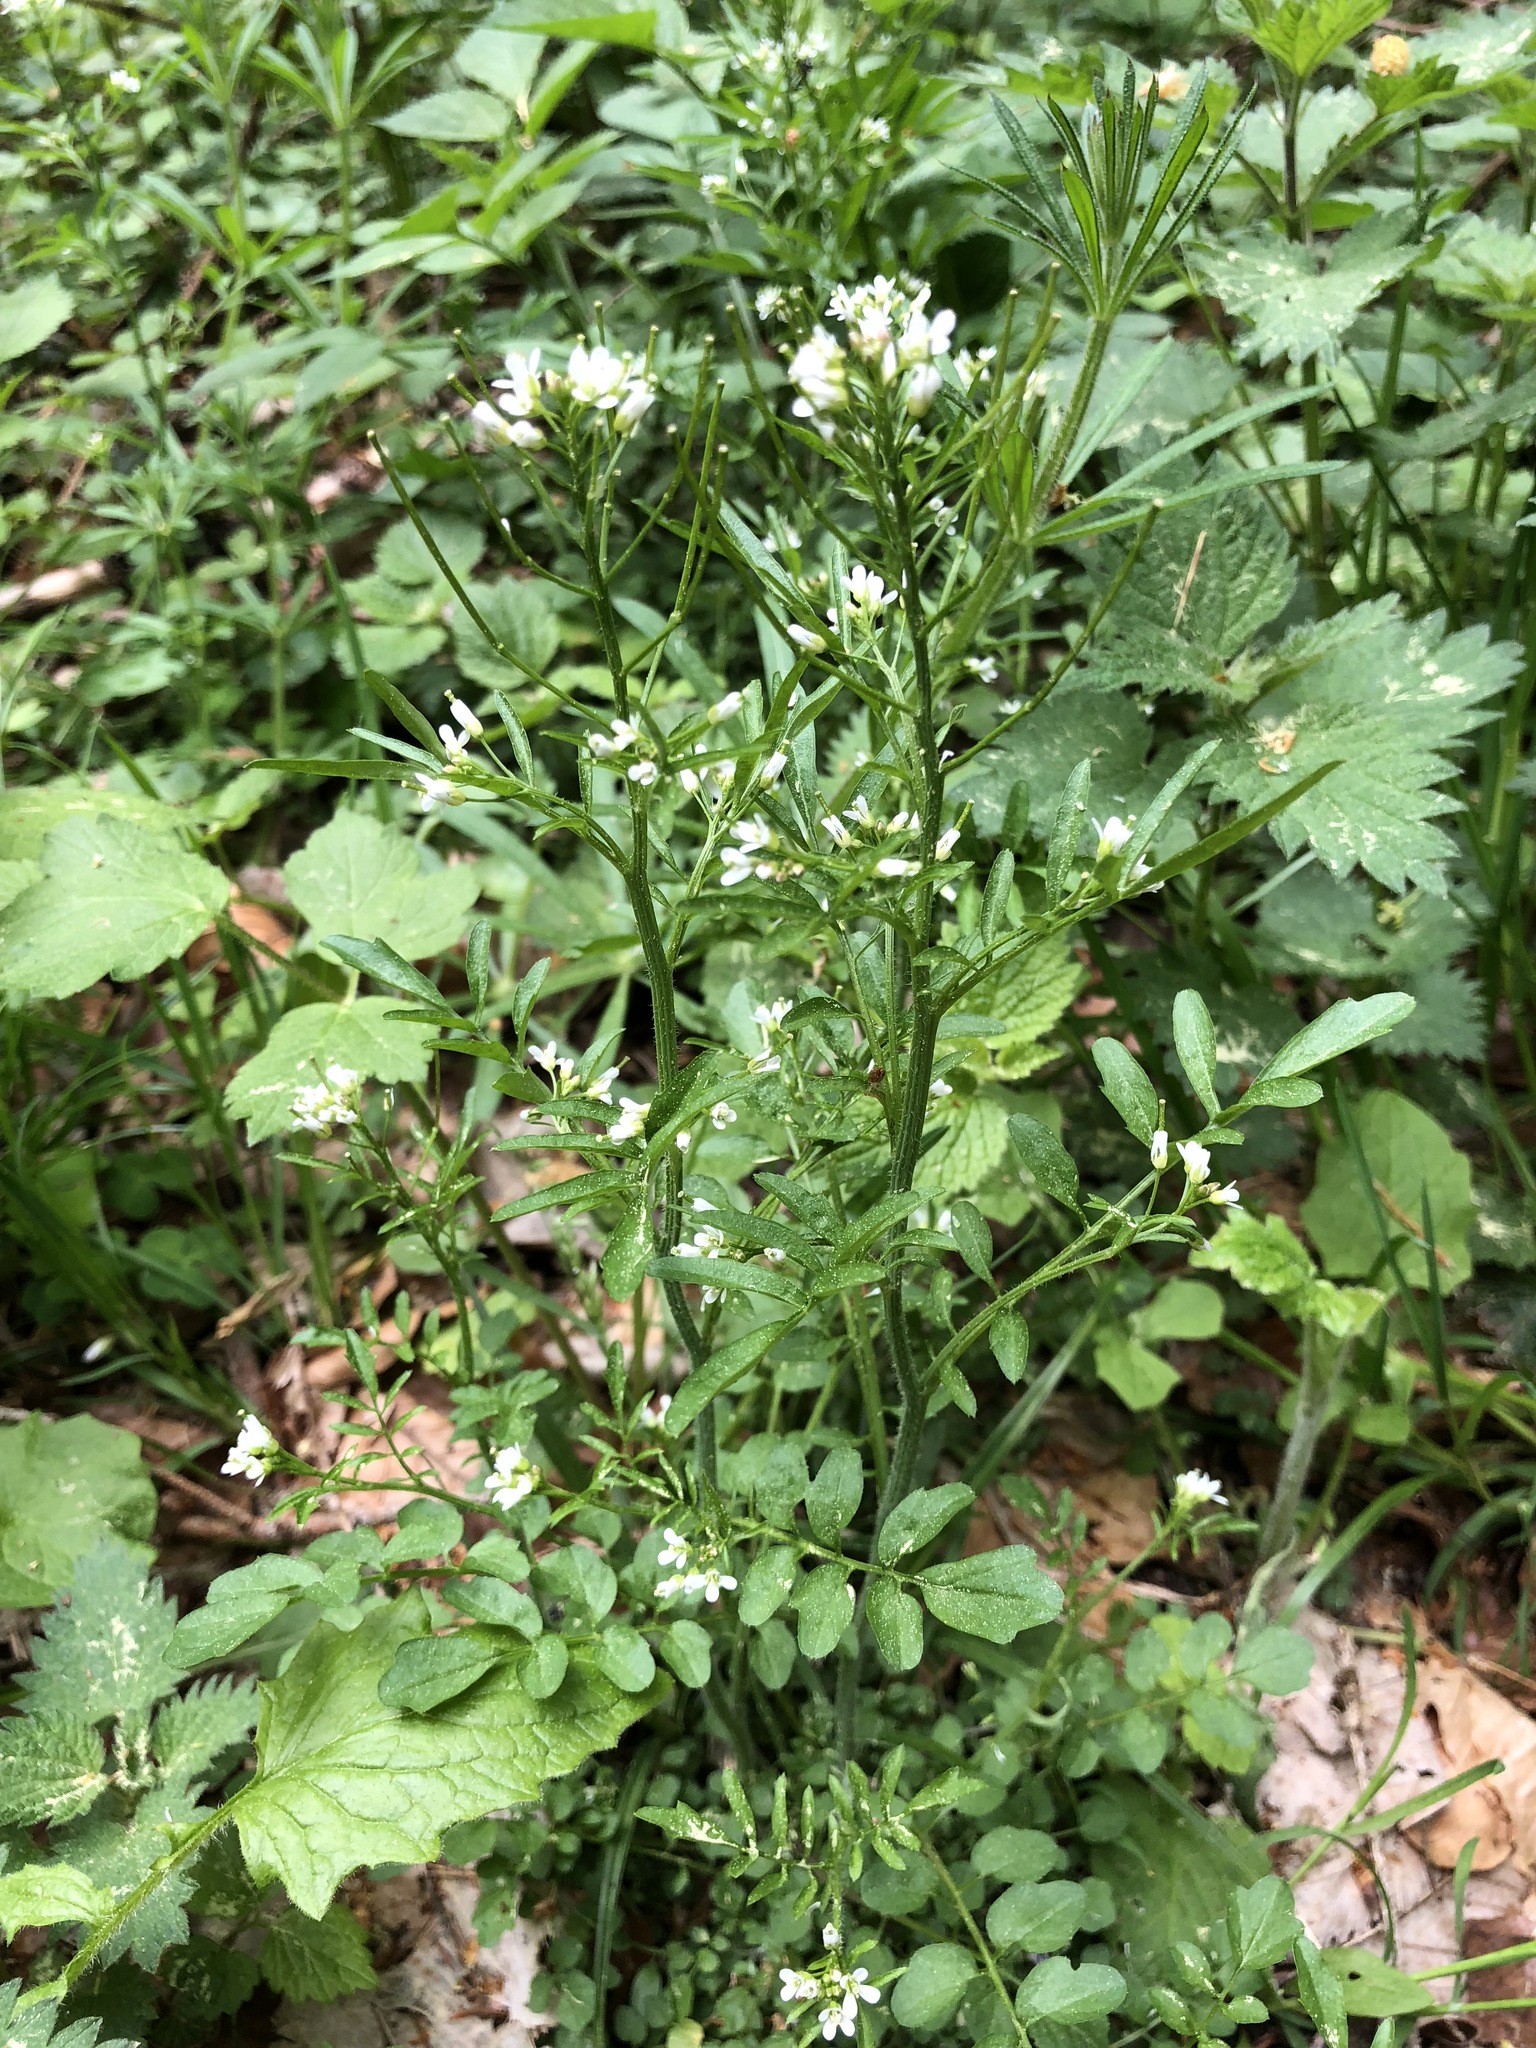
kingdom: Plantae
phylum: Tracheophyta
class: Magnoliopsida
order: Brassicales
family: Brassicaceae
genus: Cardamine
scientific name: Cardamine flexuosa
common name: Woodland bittercress
